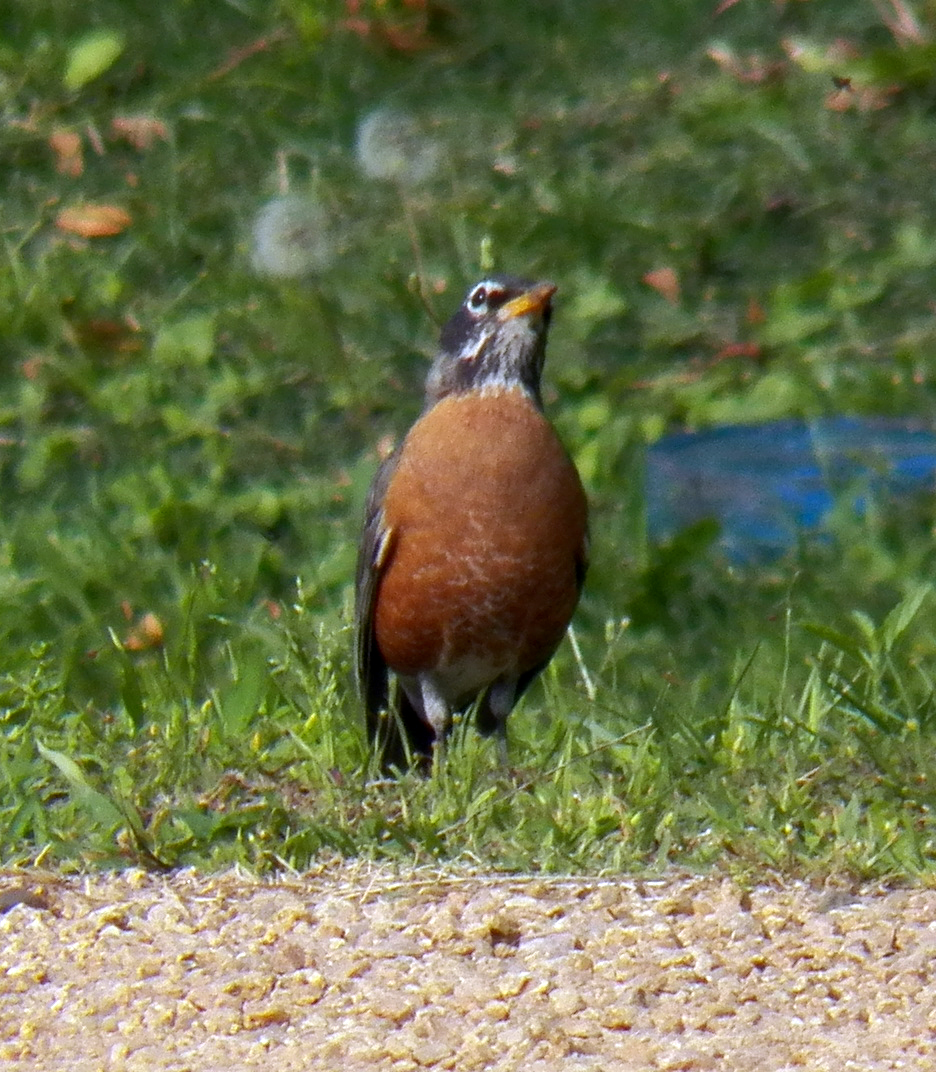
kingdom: Animalia
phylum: Chordata
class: Aves
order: Passeriformes
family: Turdidae
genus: Turdus
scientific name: Turdus migratorius
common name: American robin
